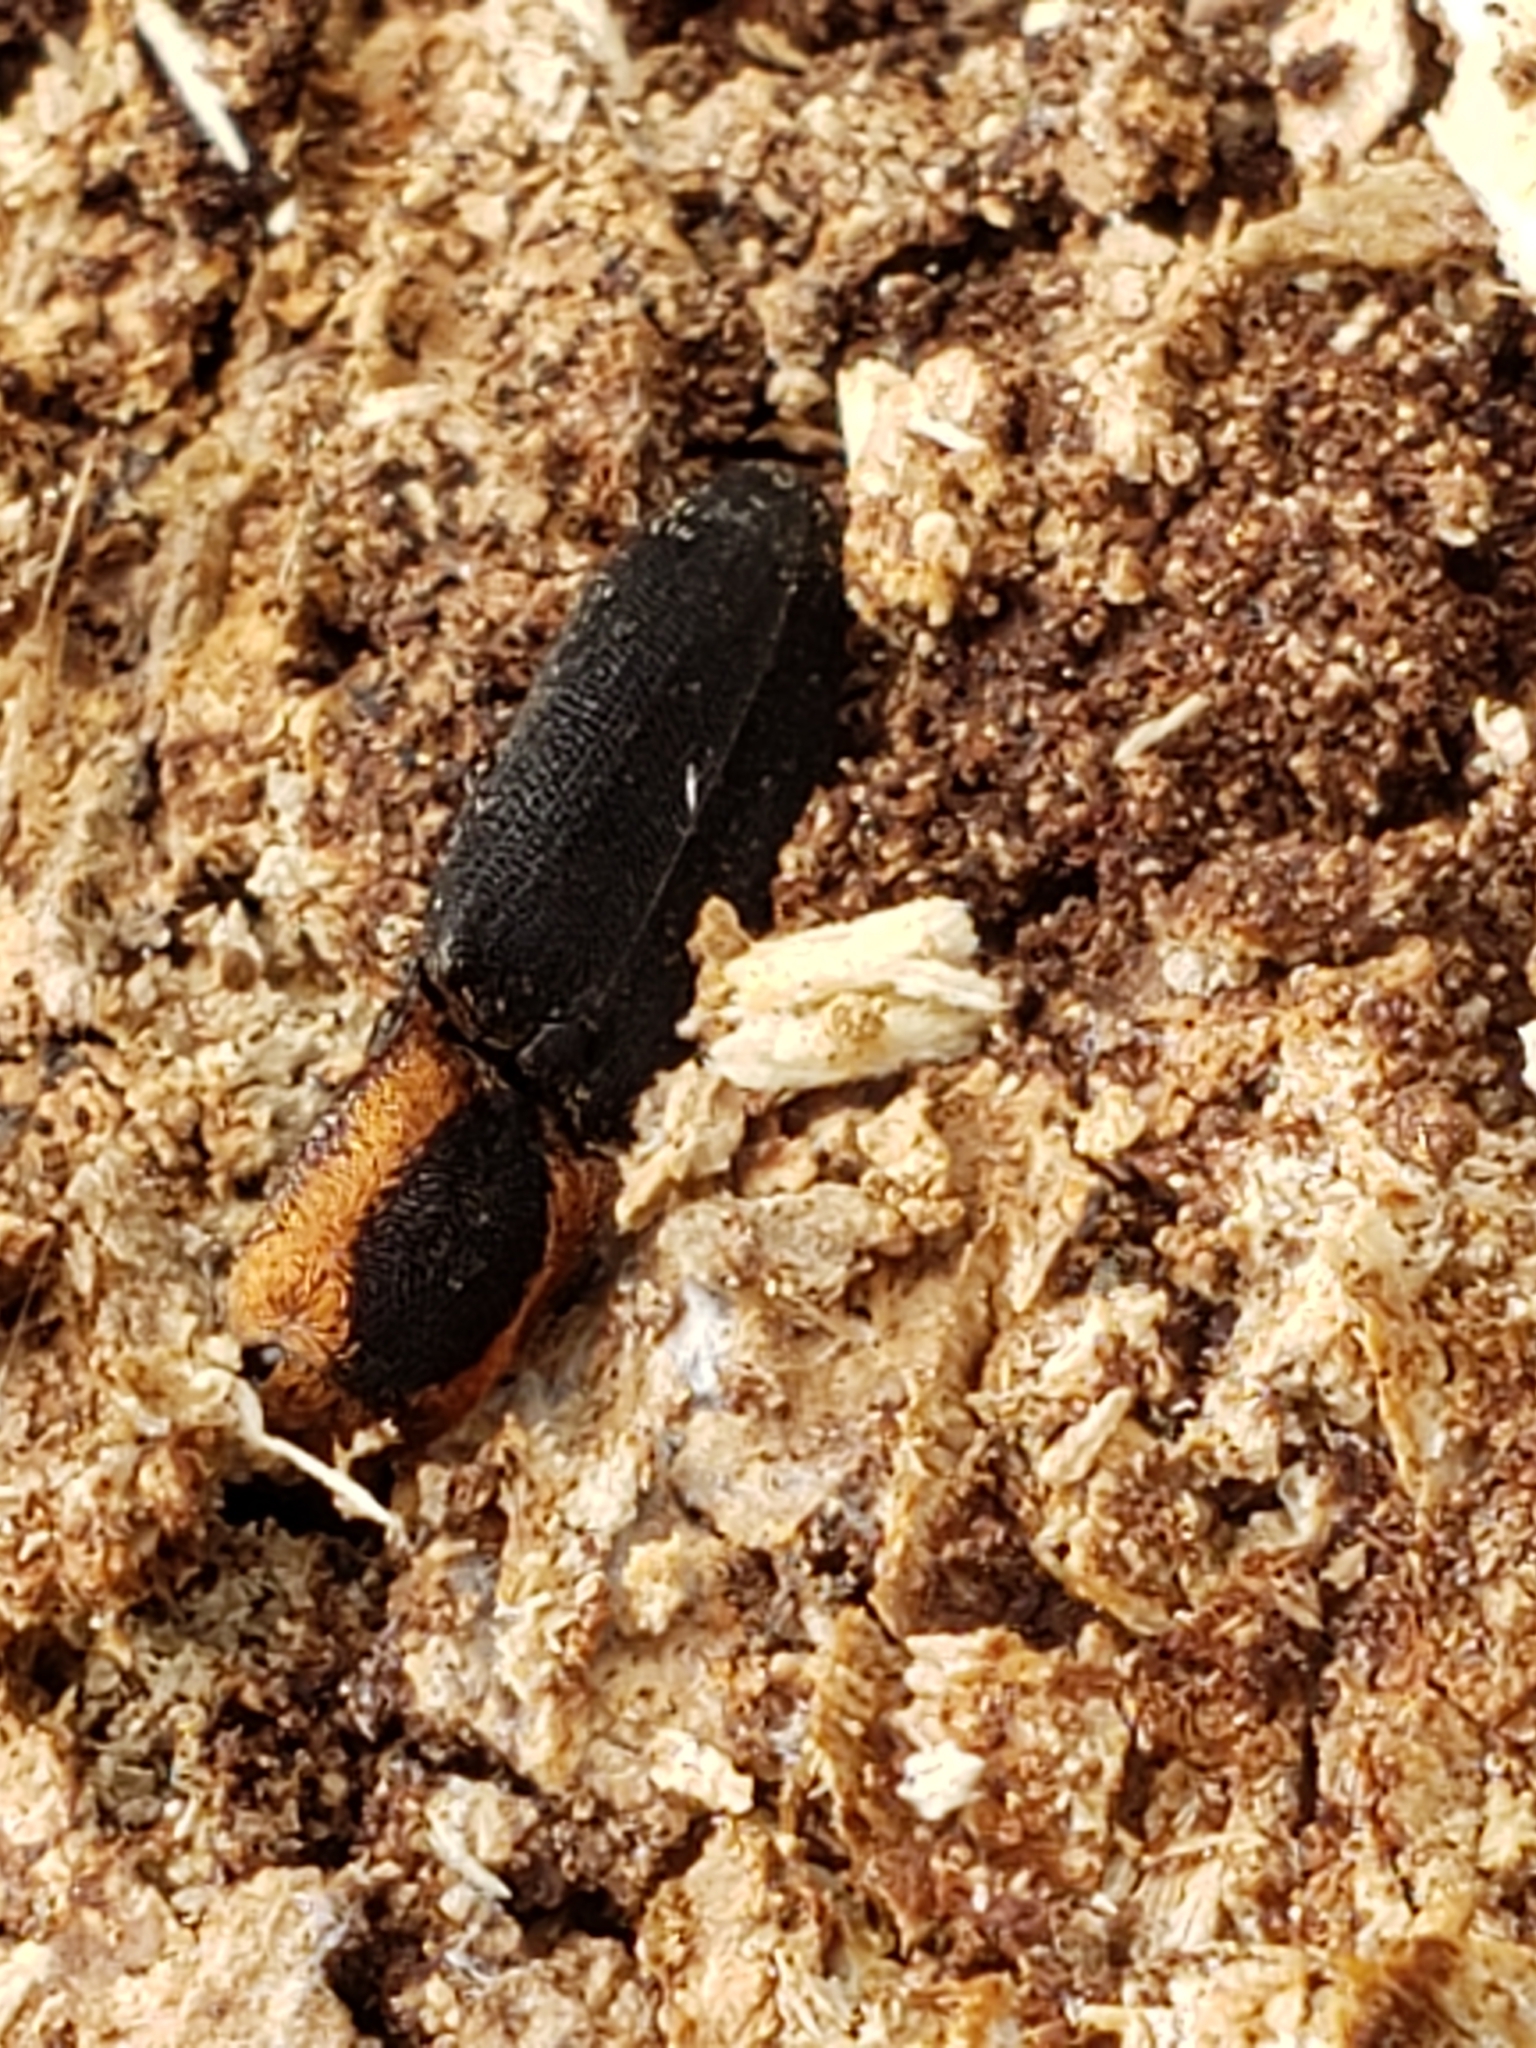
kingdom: Animalia
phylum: Arthropoda
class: Insecta
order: Coleoptera
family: Elateridae
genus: Lacon
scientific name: Lacon discoideus
